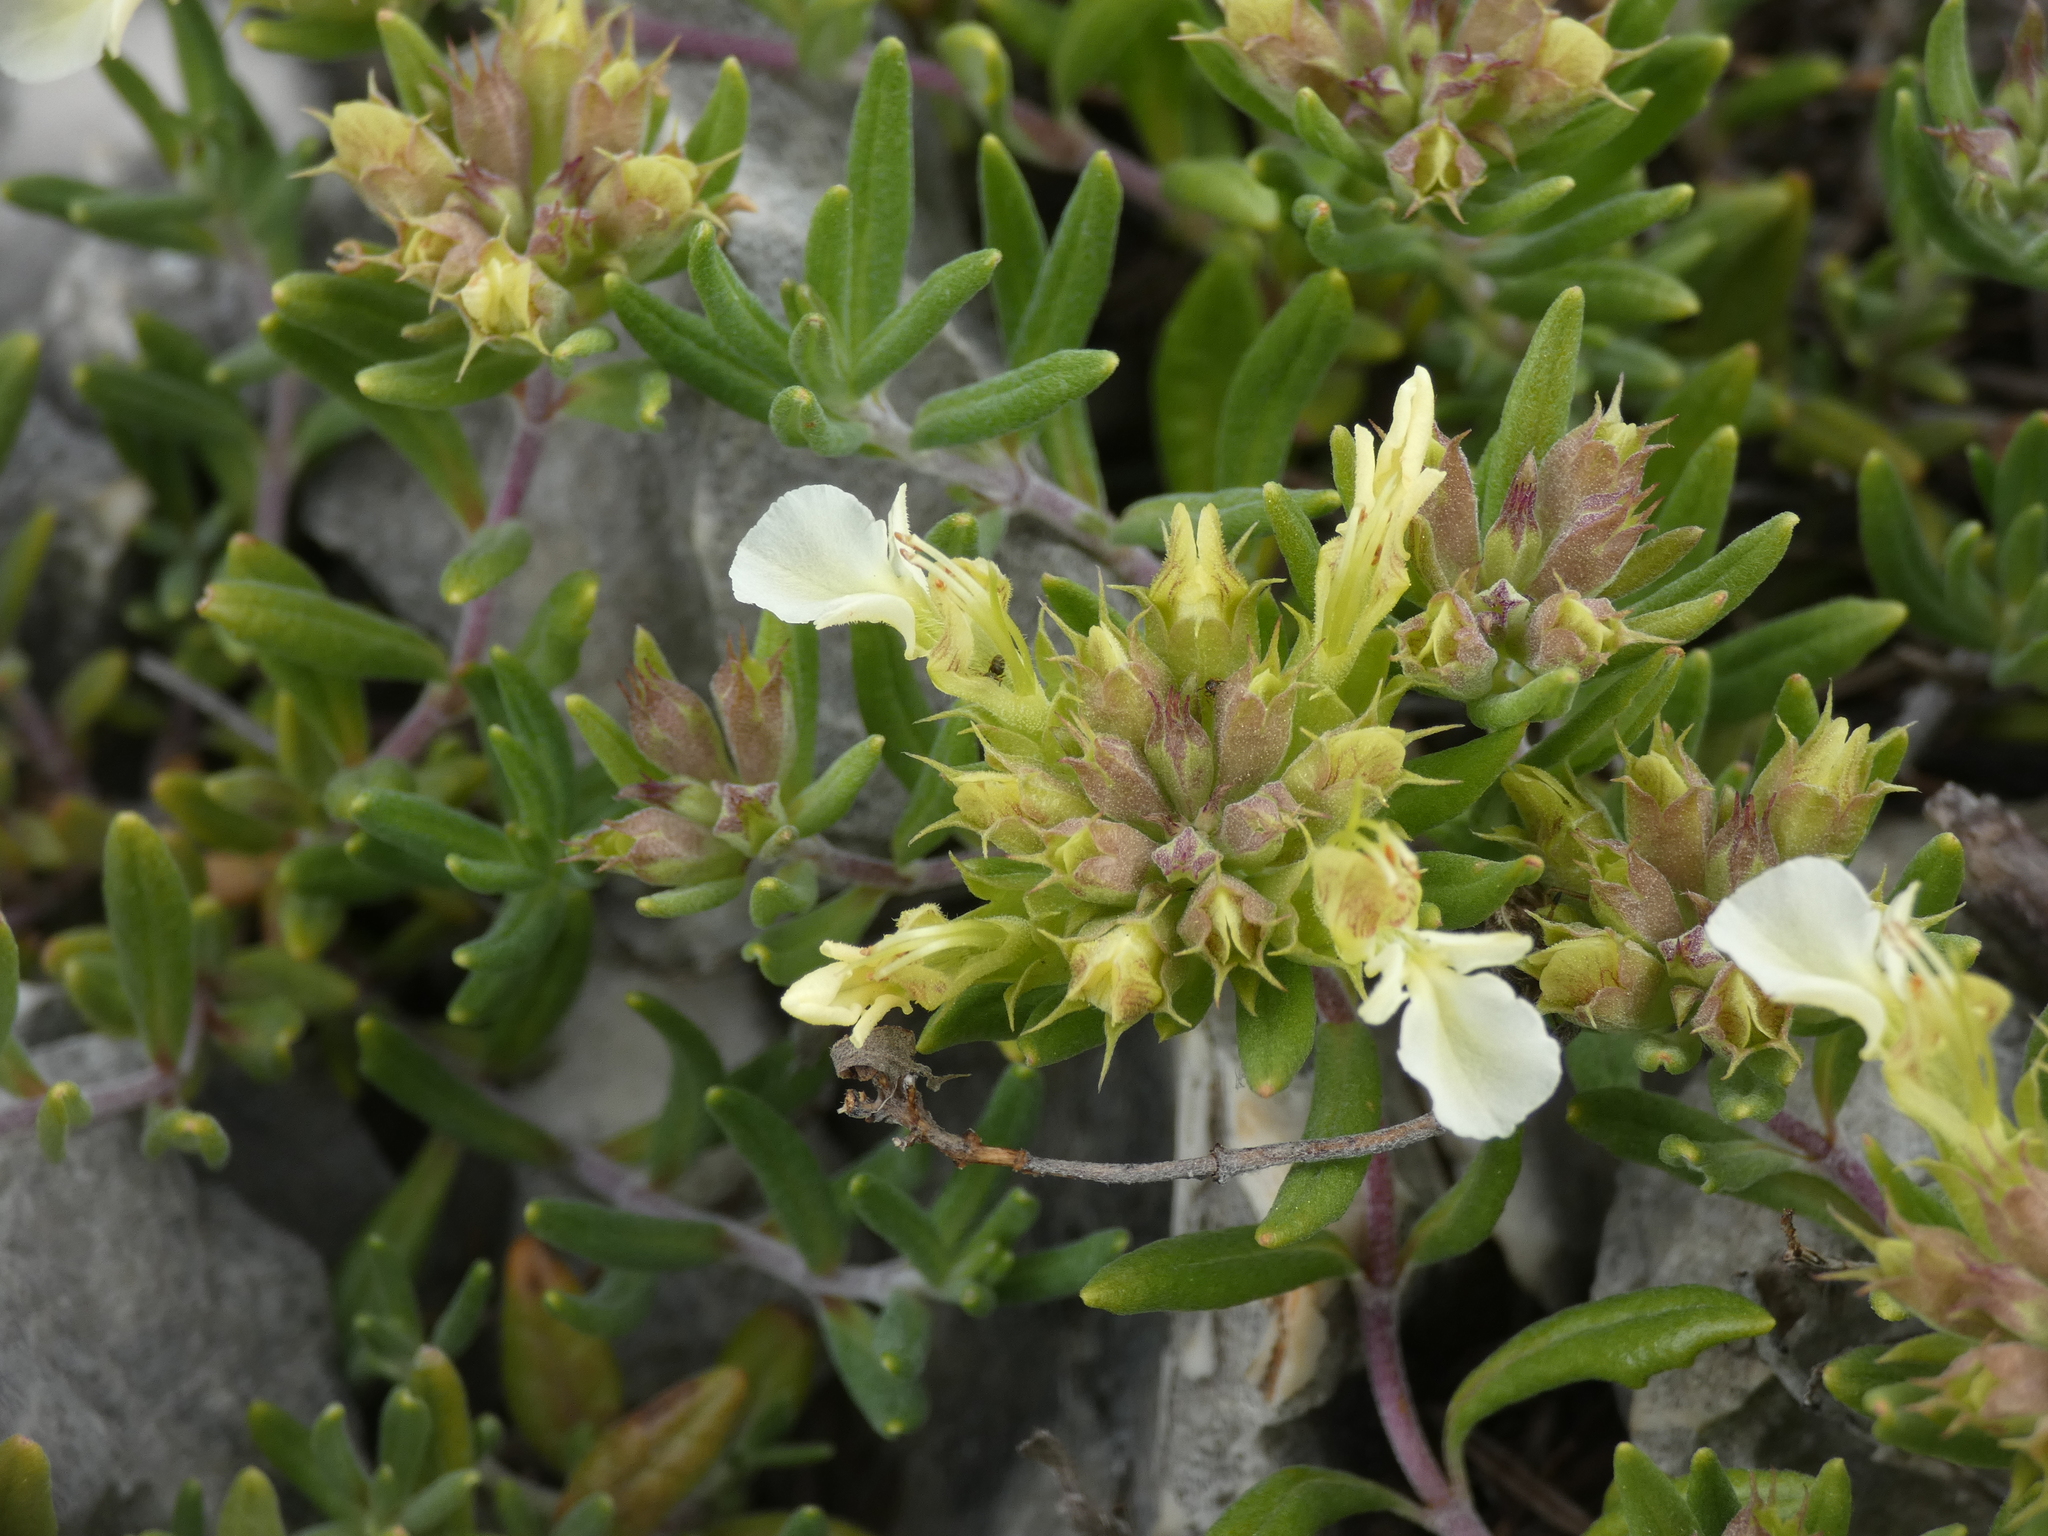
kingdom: Plantae
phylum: Tracheophyta
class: Magnoliopsida
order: Lamiales
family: Lamiaceae
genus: Teucrium
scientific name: Teucrium montanum
